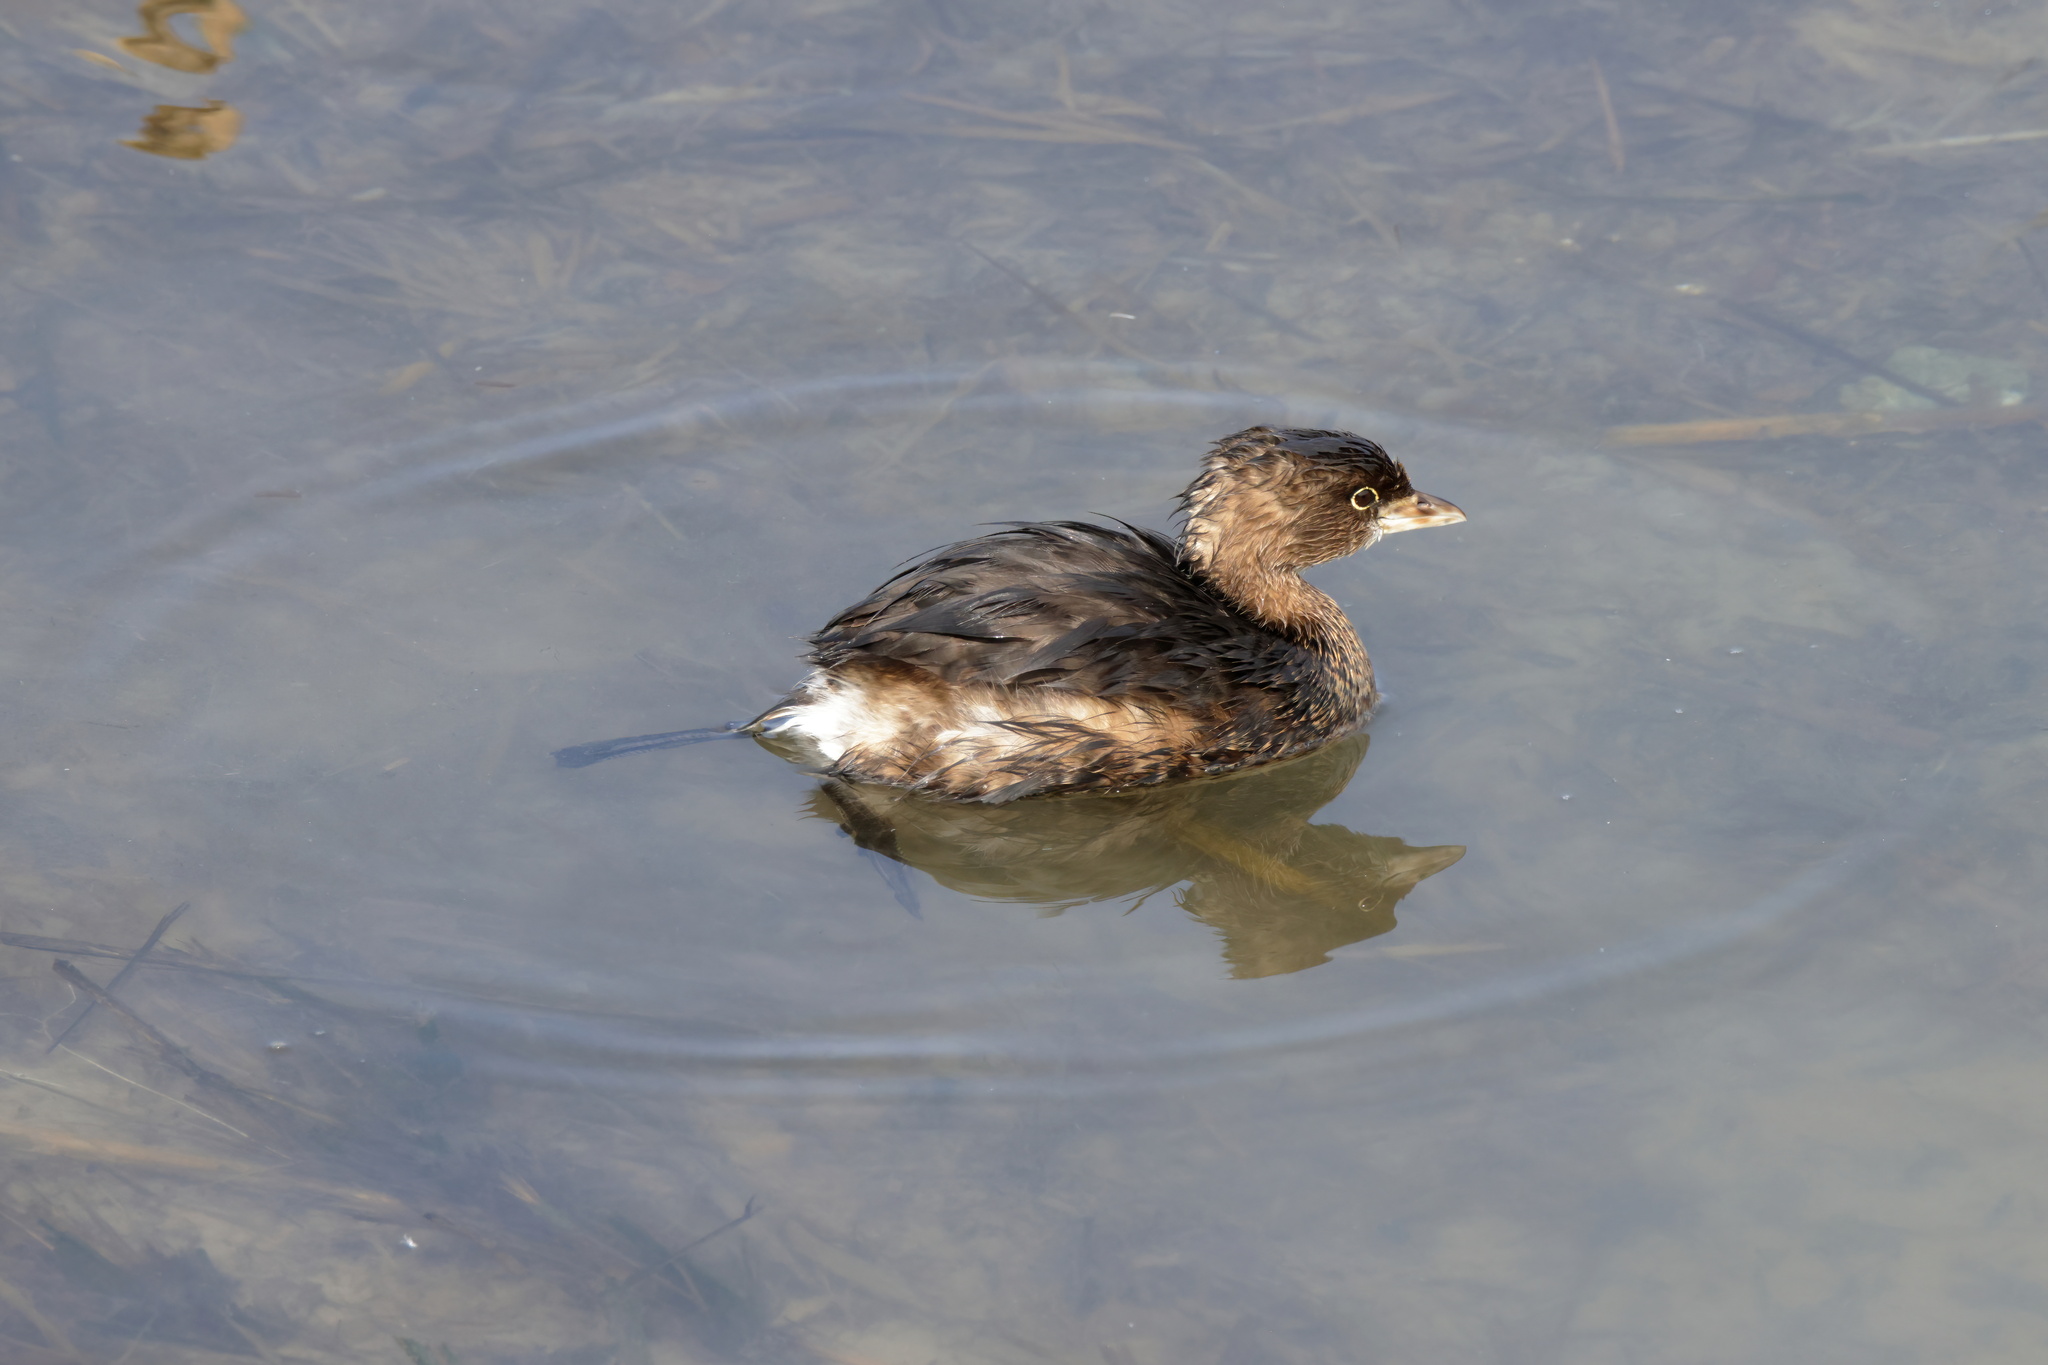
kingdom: Animalia
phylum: Chordata
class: Aves
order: Podicipediformes
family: Podicipedidae
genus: Podilymbus
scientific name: Podilymbus podiceps
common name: Pied-billed grebe
